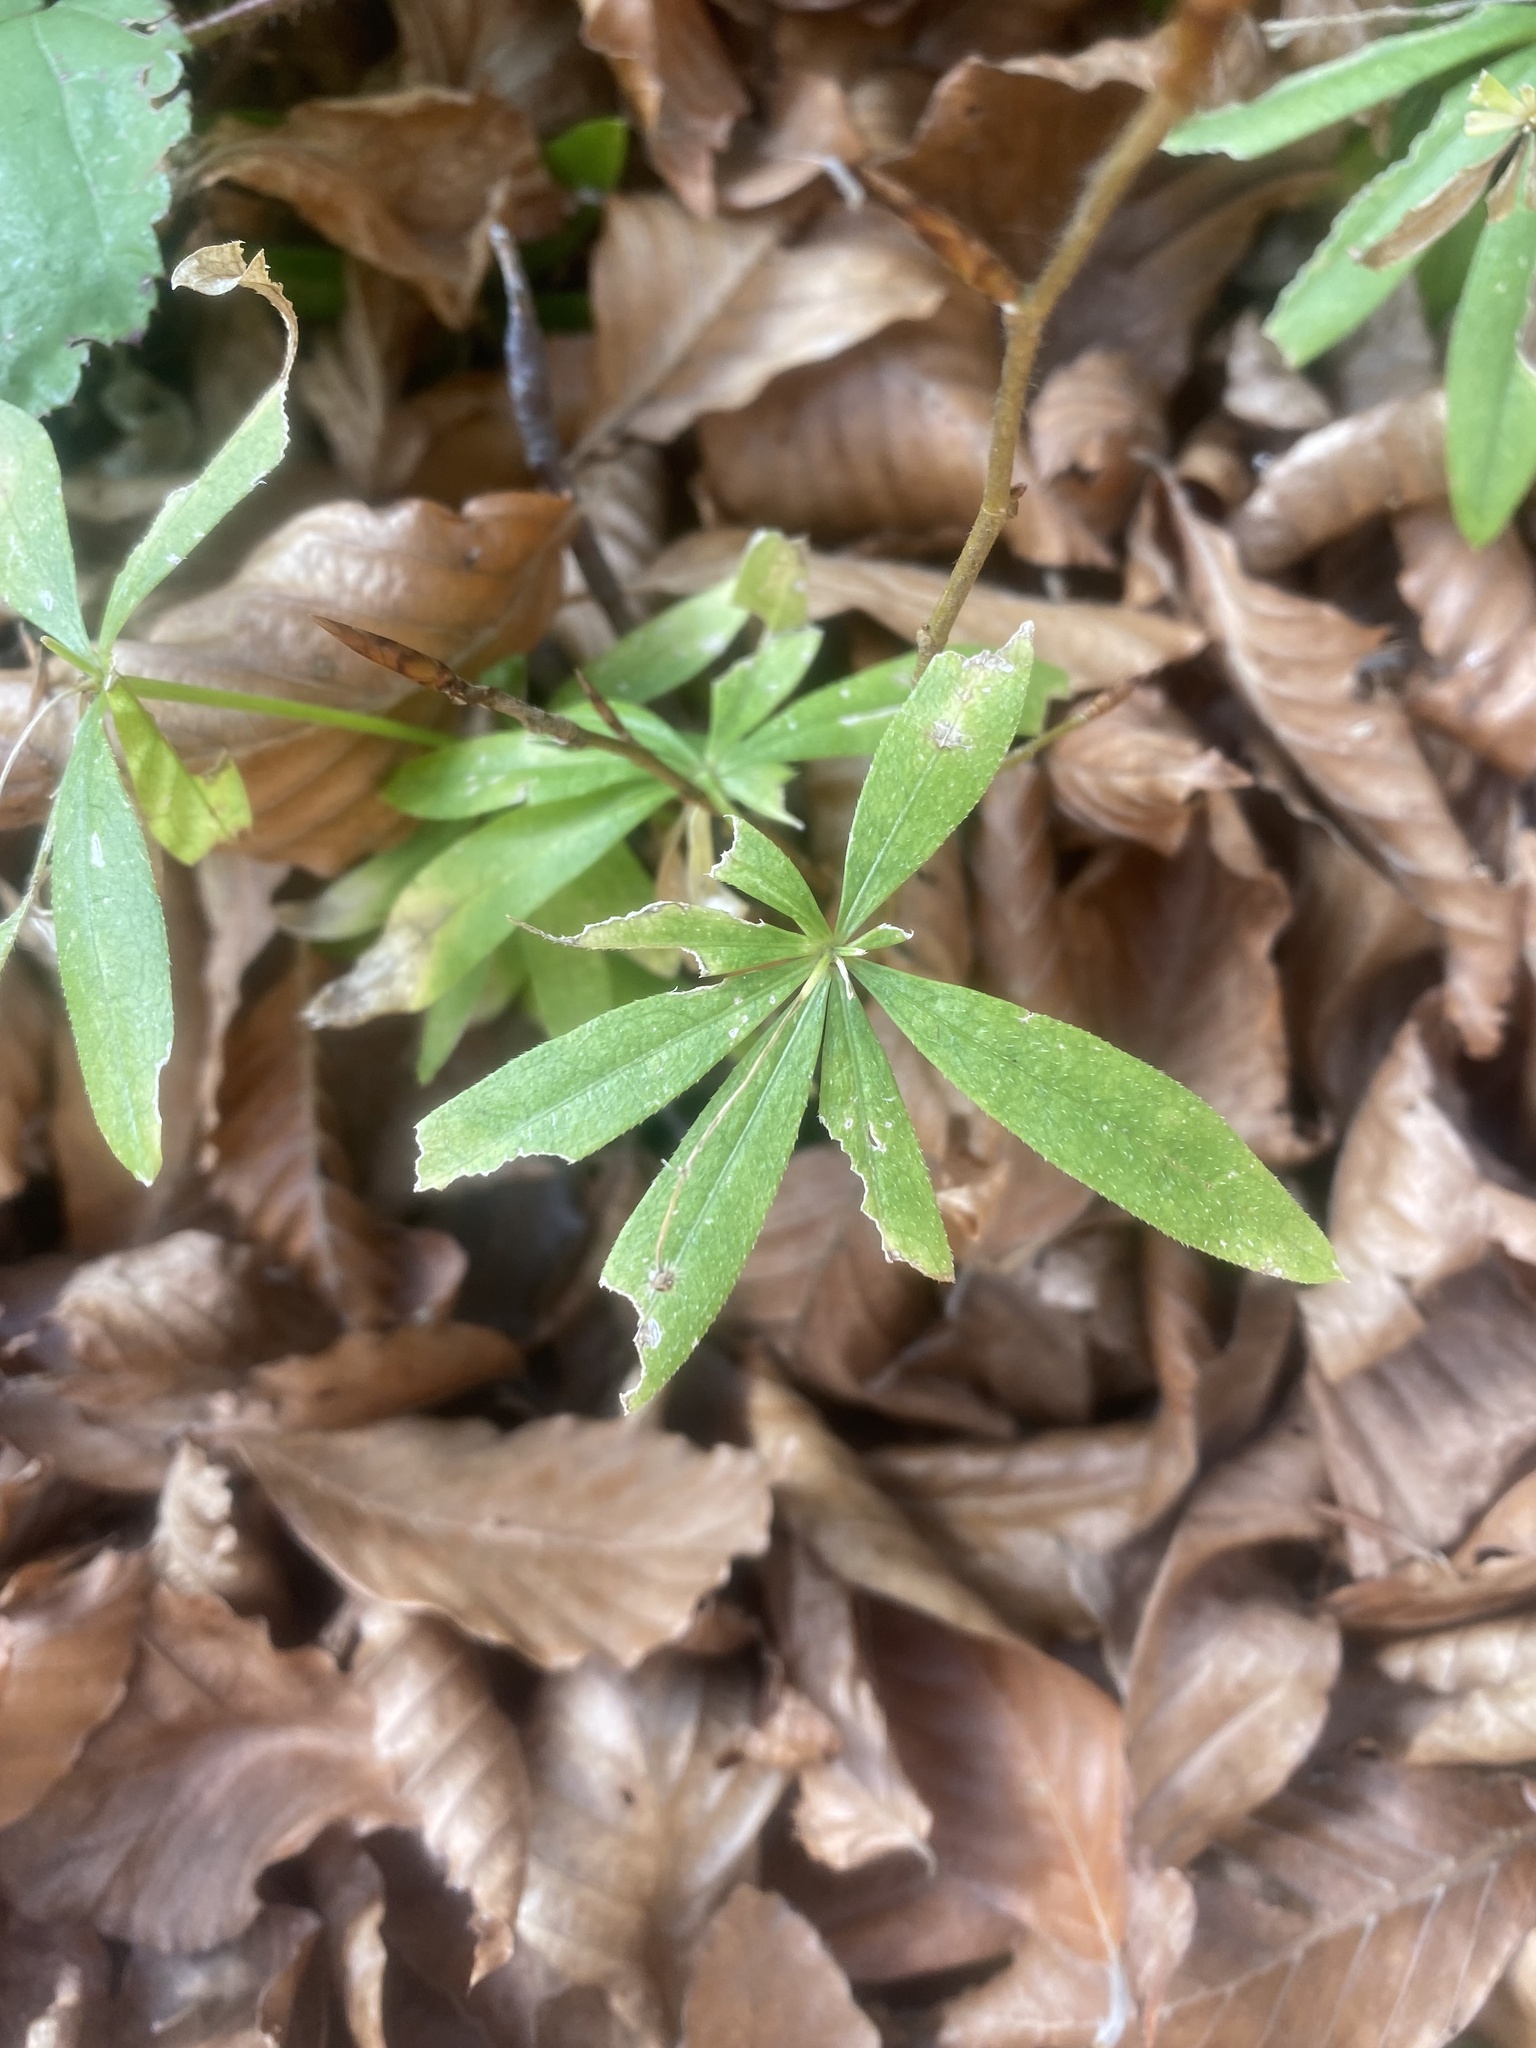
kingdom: Plantae
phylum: Tracheophyta
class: Magnoliopsida
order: Gentianales
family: Rubiaceae
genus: Galium
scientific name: Galium odoratum
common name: Sweet woodruff
